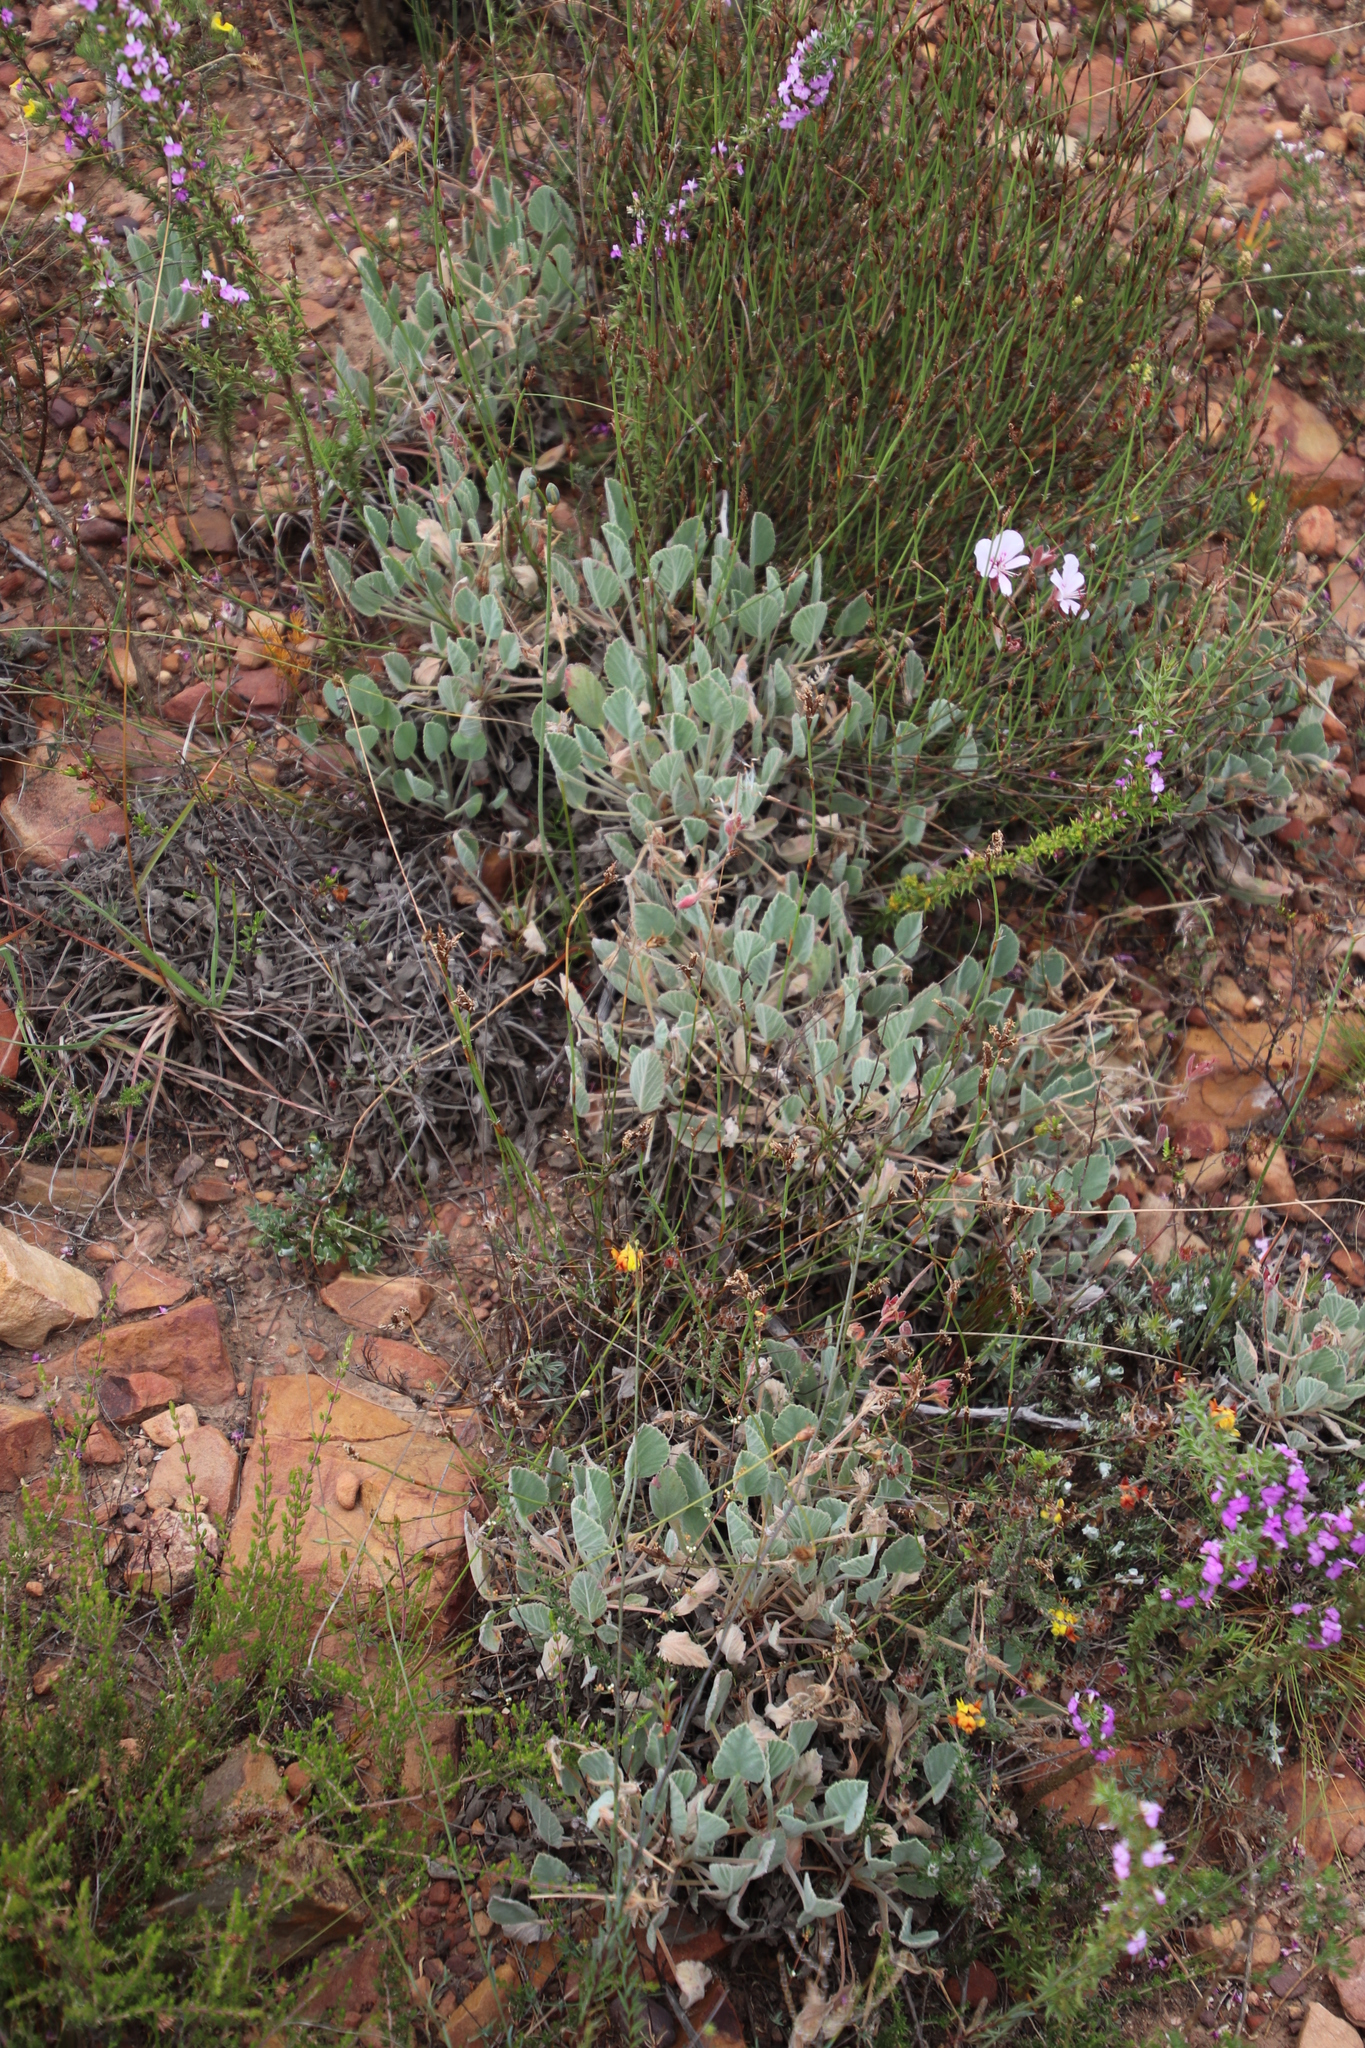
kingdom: Plantae
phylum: Tracheophyta
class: Magnoliopsida
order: Geraniales
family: Geraniaceae
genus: Pelargonium
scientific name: Pelargonium ovale
